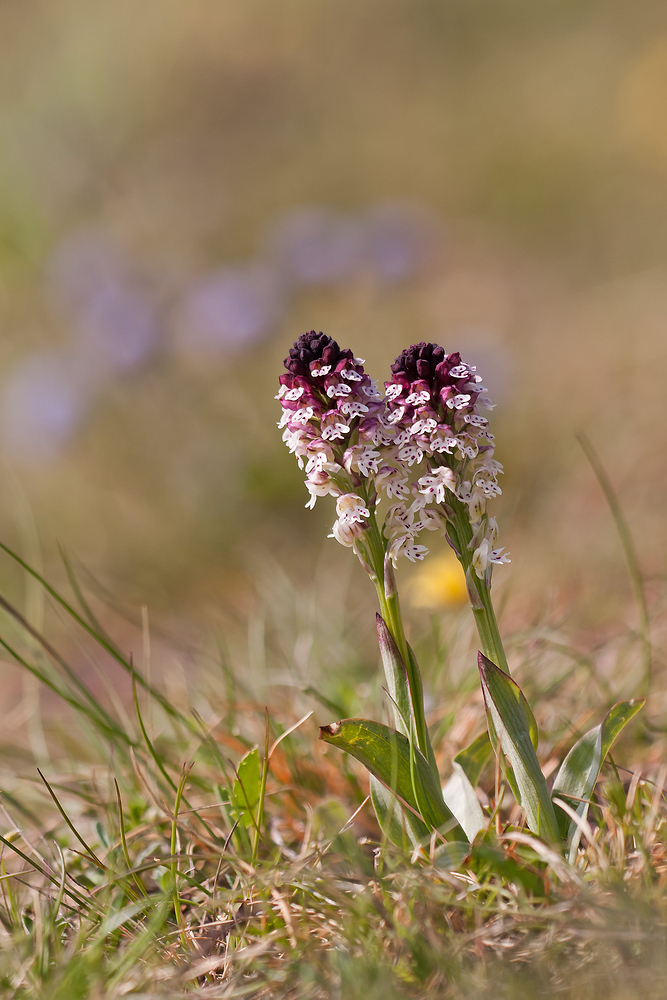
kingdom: Plantae
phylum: Tracheophyta
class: Liliopsida
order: Asparagales
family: Orchidaceae
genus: Neotinea
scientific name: Neotinea ustulata
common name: Burnt orchid
